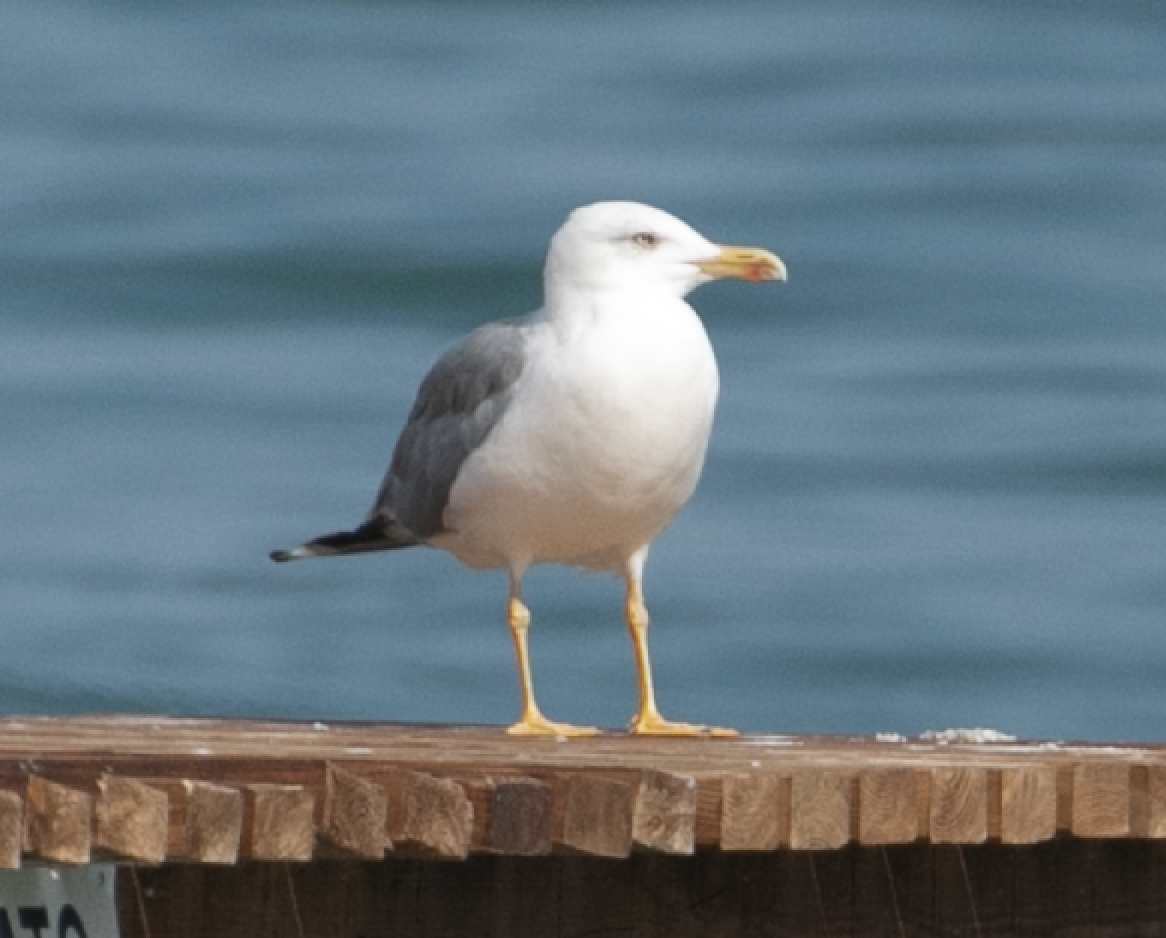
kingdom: Animalia
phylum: Chordata
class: Aves
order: Charadriiformes
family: Laridae
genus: Larus
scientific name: Larus michahellis
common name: Yellow-legged gull
